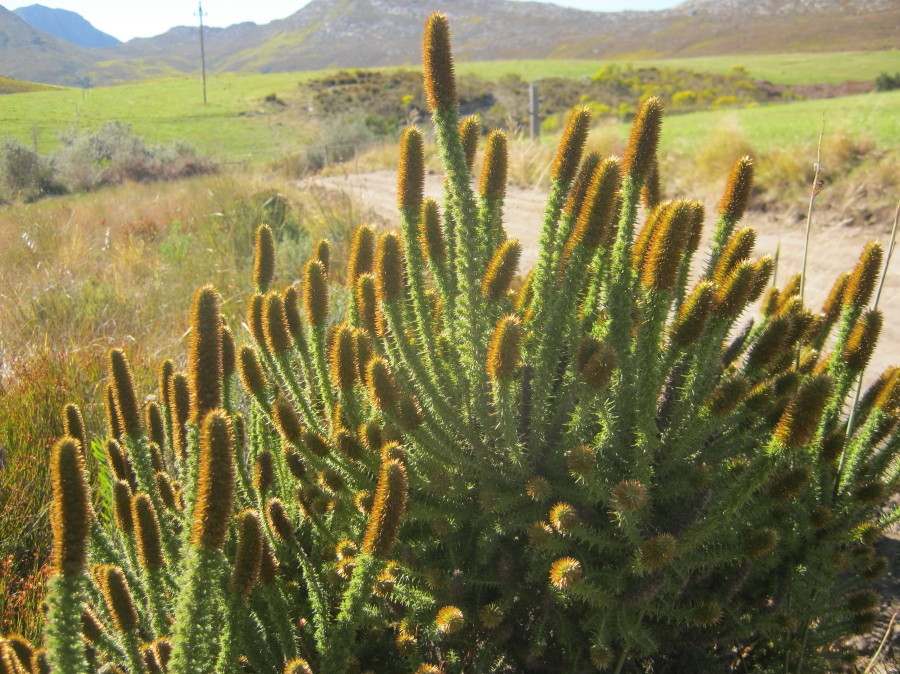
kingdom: Plantae
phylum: Tracheophyta
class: Magnoliopsida
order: Asterales
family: Asteraceae
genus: Stoebe
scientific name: Stoebe alopecuroides
